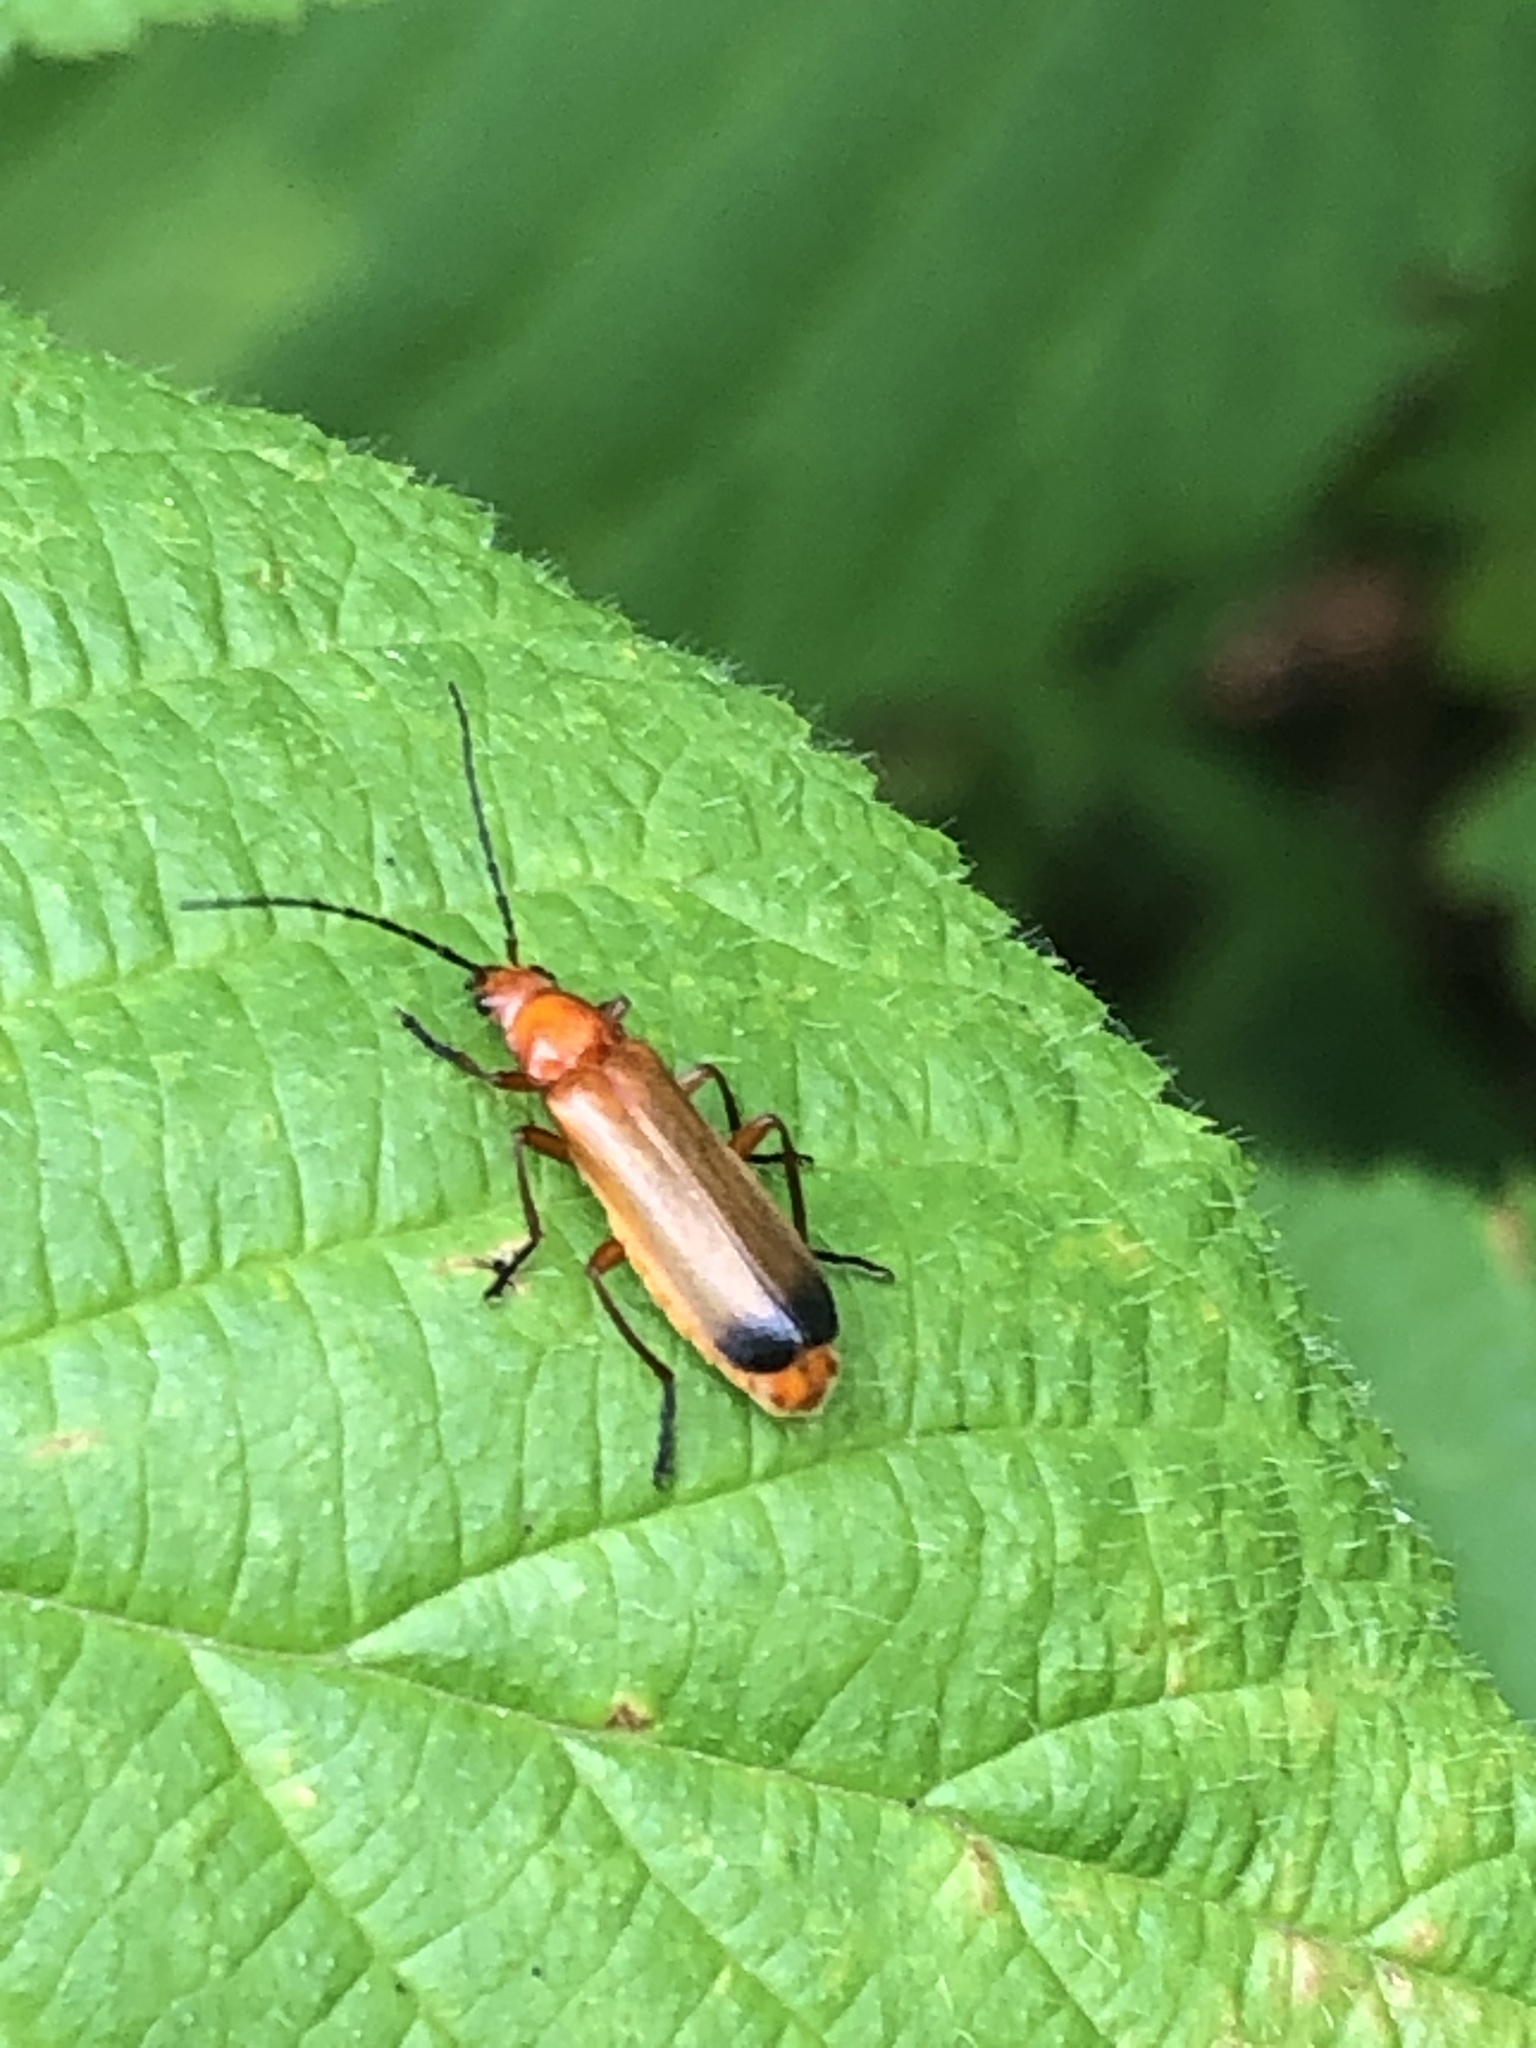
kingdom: Animalia
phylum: Arthropoda
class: Insecta
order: Coleoptera
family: Cantharidae
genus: Rhagonycha
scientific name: Rhagonycha fulva
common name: Common red soldier beetle
